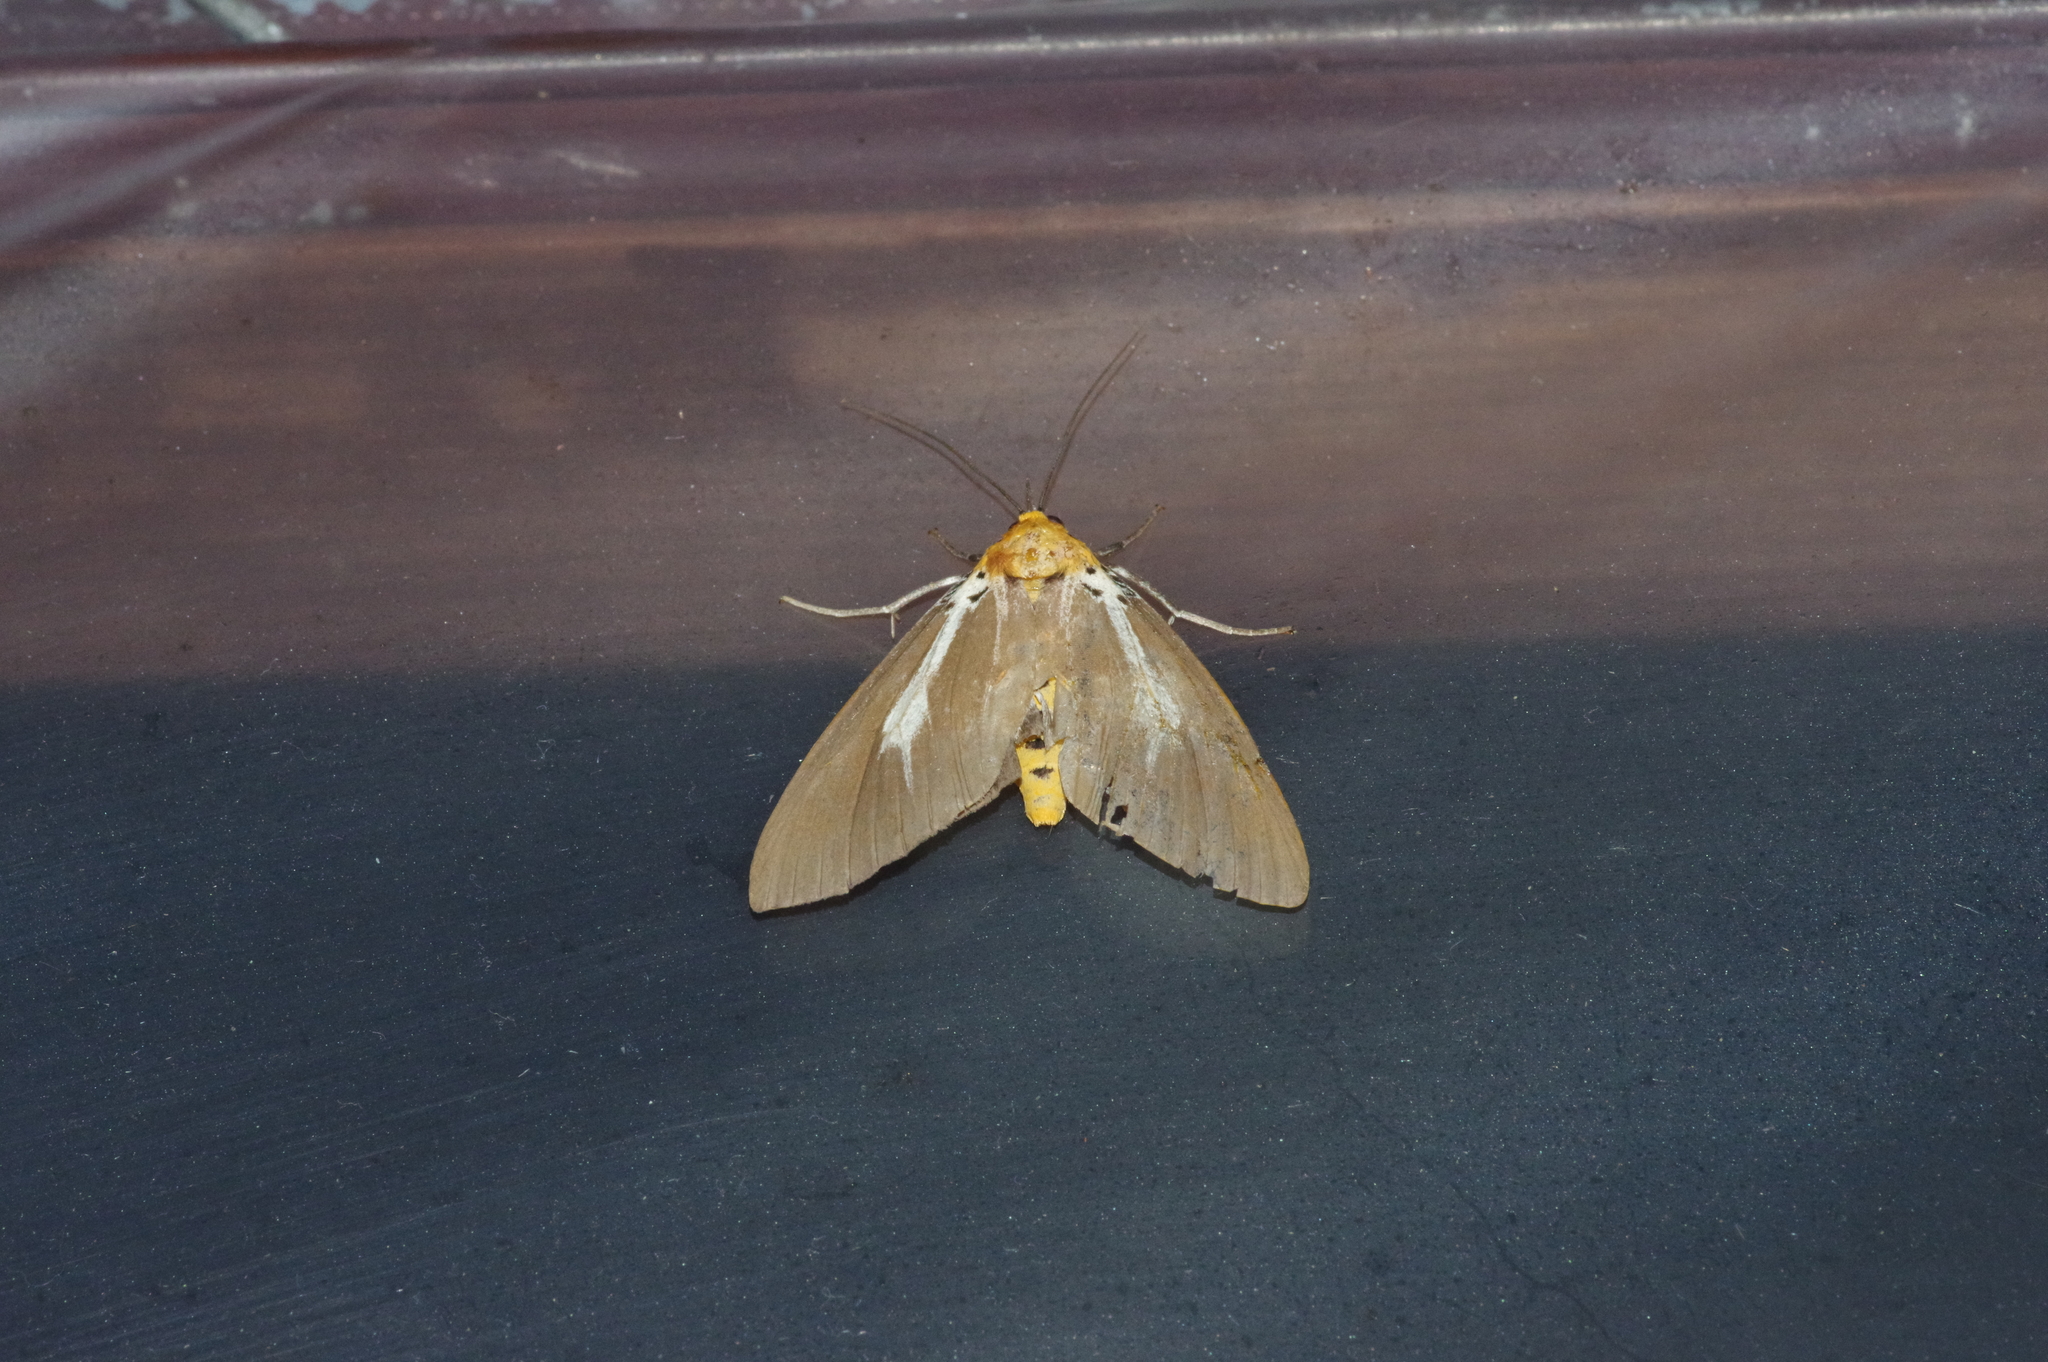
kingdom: Animalia
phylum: Arthropoda
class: Insecta
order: Lepidoptera
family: Erebidae
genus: Asota
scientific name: Asota heliconia
